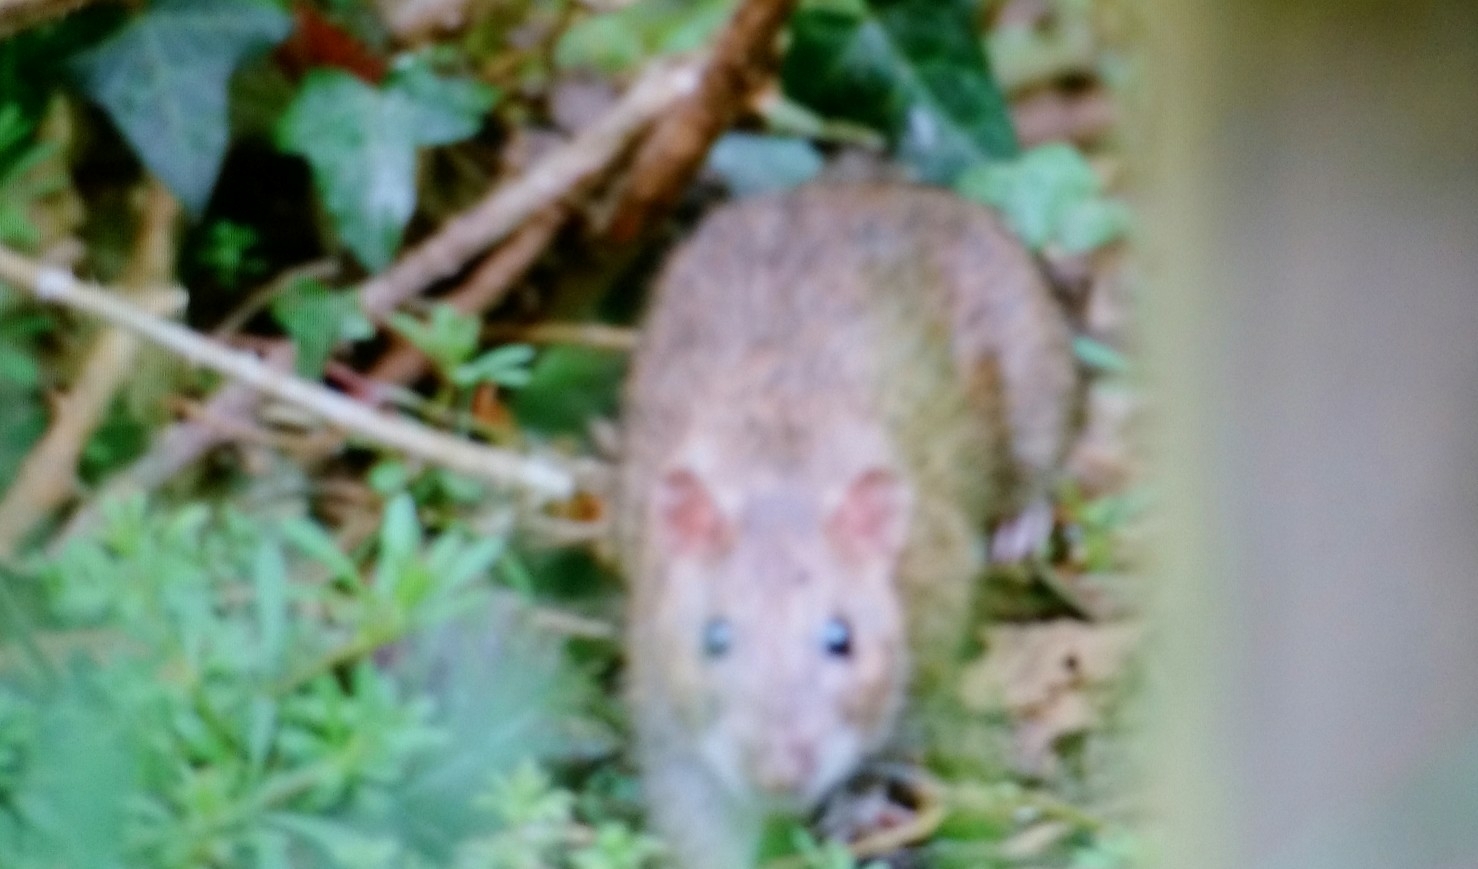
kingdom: Animalia
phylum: Chordata
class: Mammalia
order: Rodentia
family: Muridae
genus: Rattus
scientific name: Rattus norvegicus
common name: Brown rat
